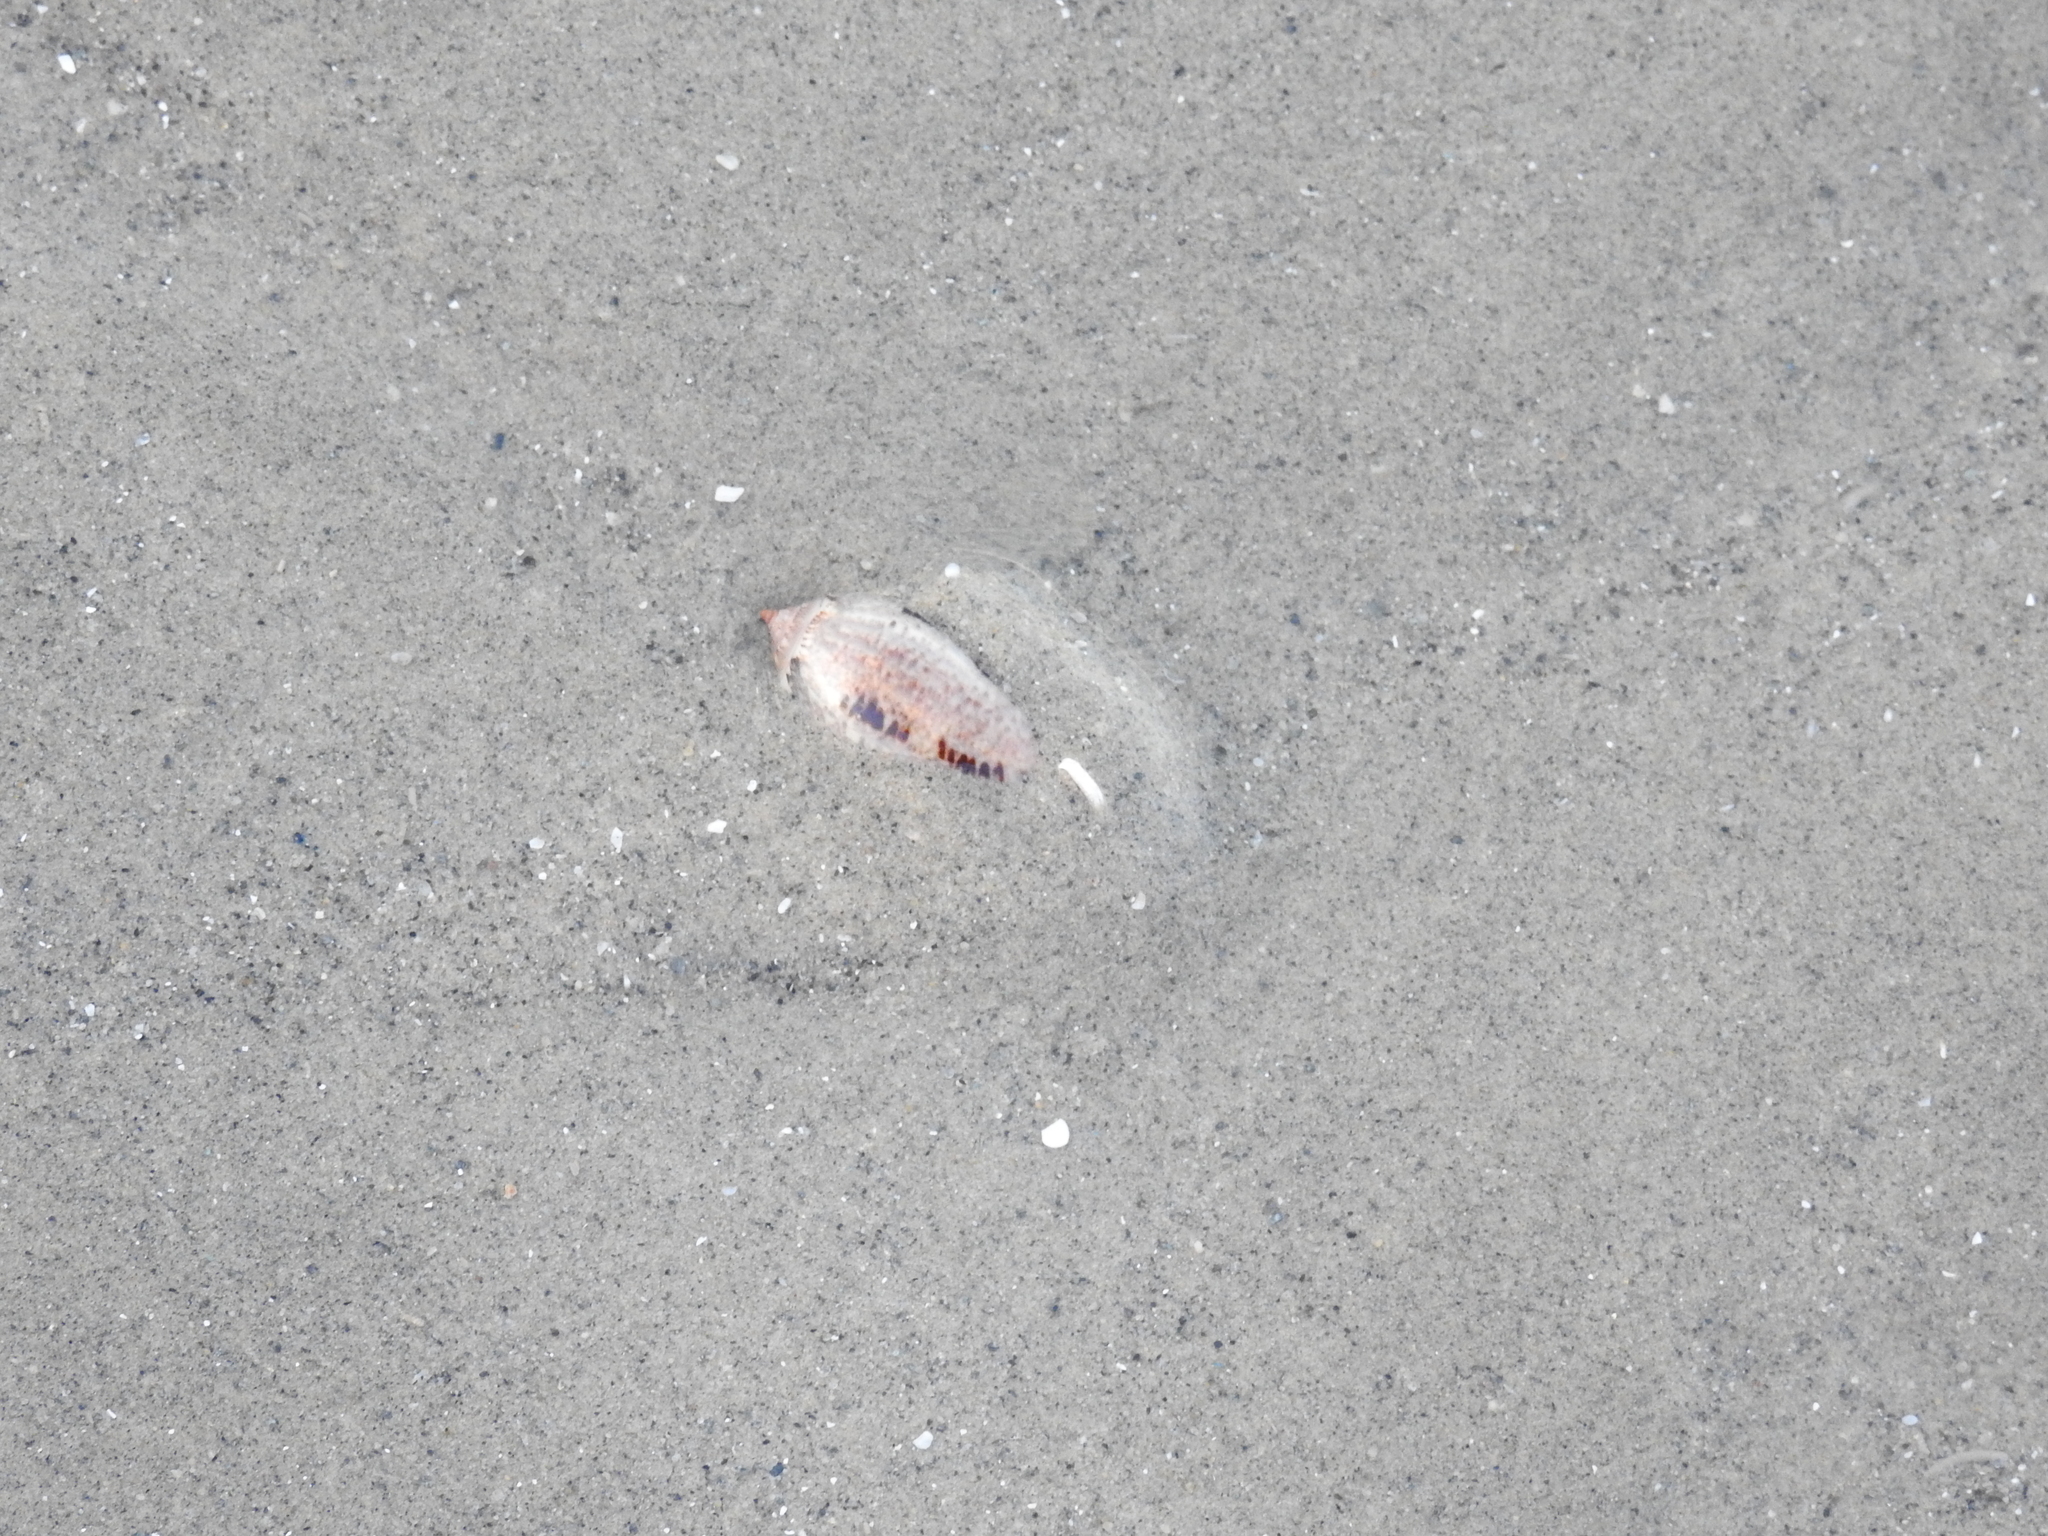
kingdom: Animalia
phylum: Mollusca
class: Gastropoda
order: Neogastropoda
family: Olividae
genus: Oliva
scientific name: Oliva incrassata
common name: Angled olive
